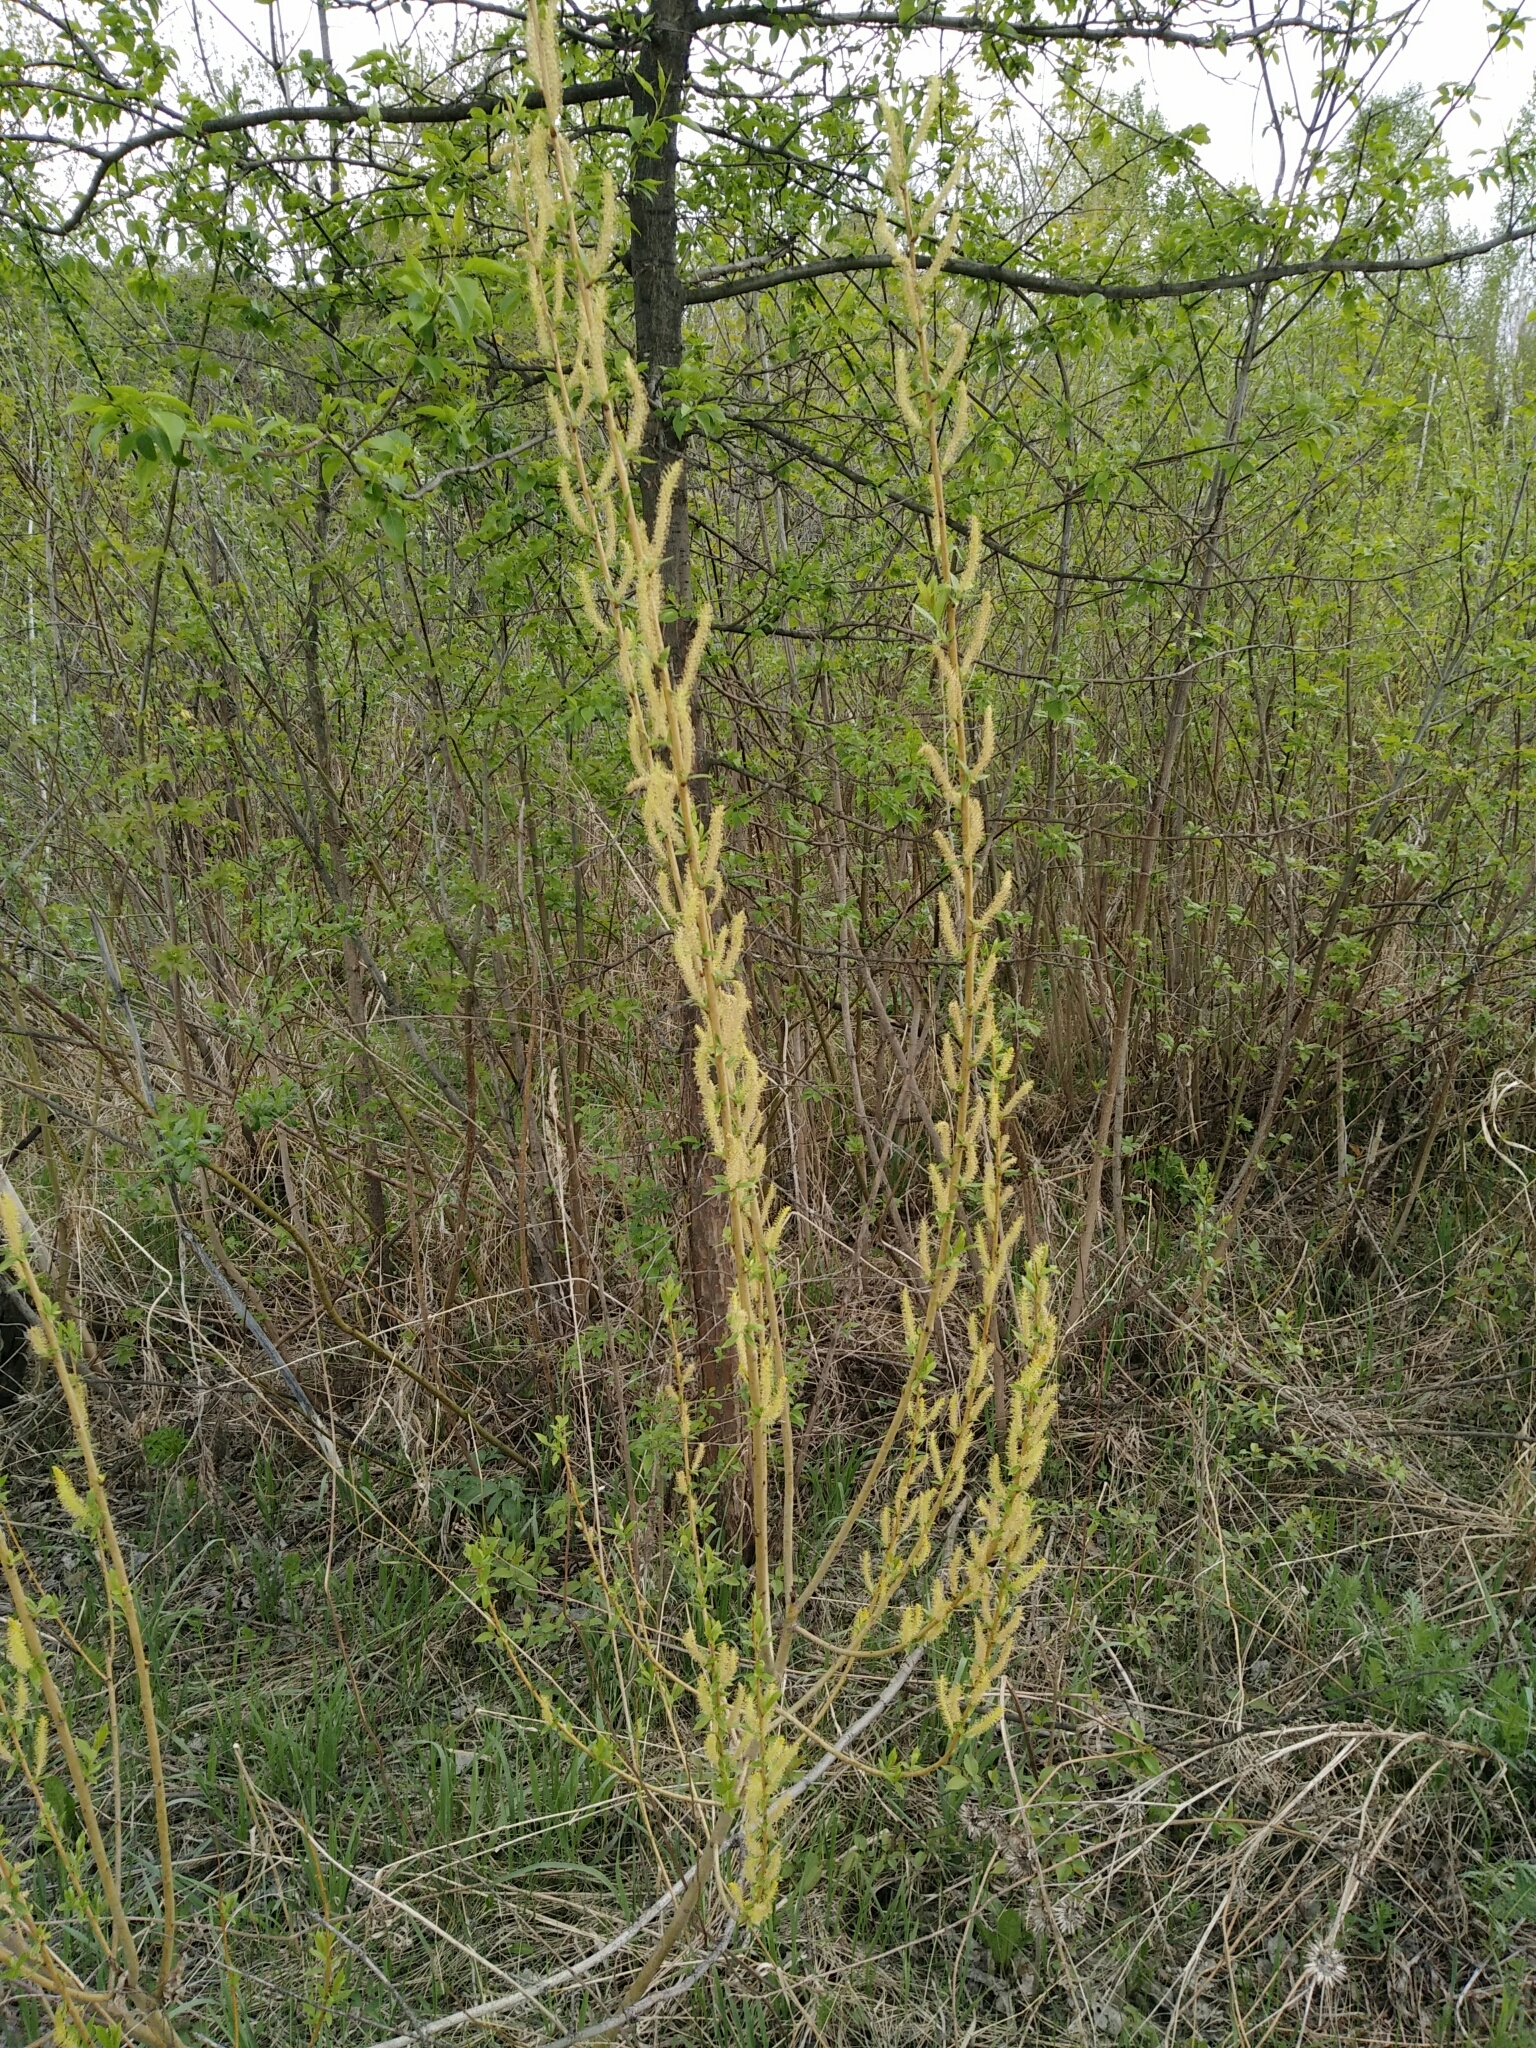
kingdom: Plantae
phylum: Tracheophyta
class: Magnoliopsida
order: Malpighiales
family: Salicaceae
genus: Salix
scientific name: Salix alba
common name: White willow
